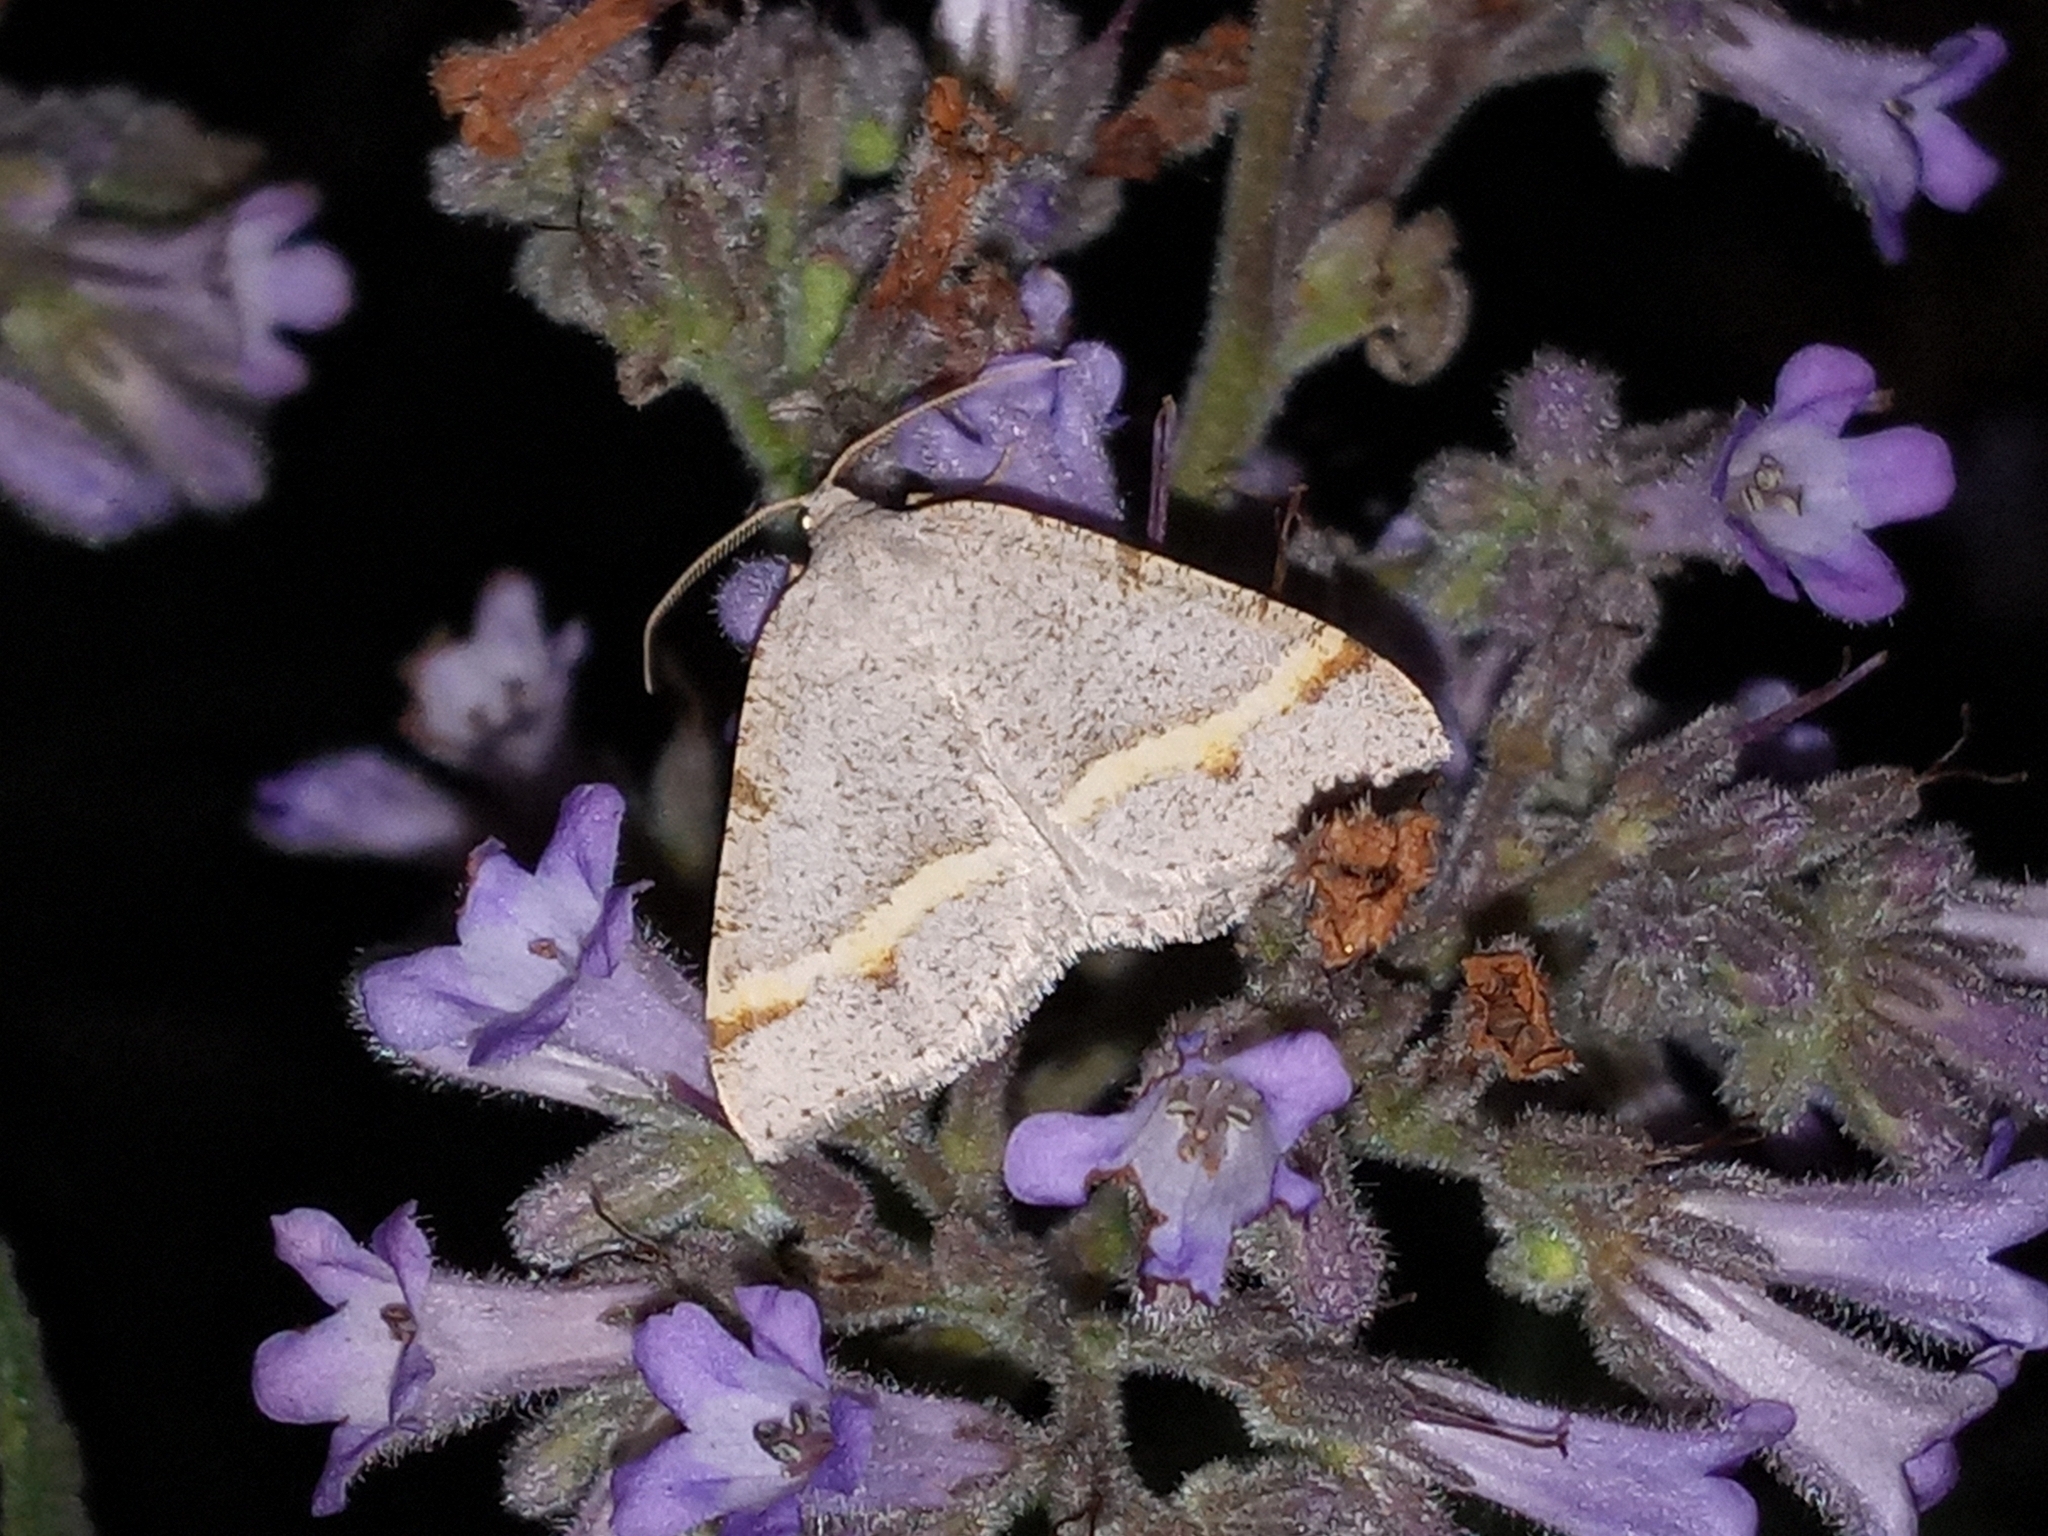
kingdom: Animalia
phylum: Arthropoda
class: Insecta
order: Lepidoptera
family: Geometridae
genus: Macaria
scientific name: Macaria austrinata
